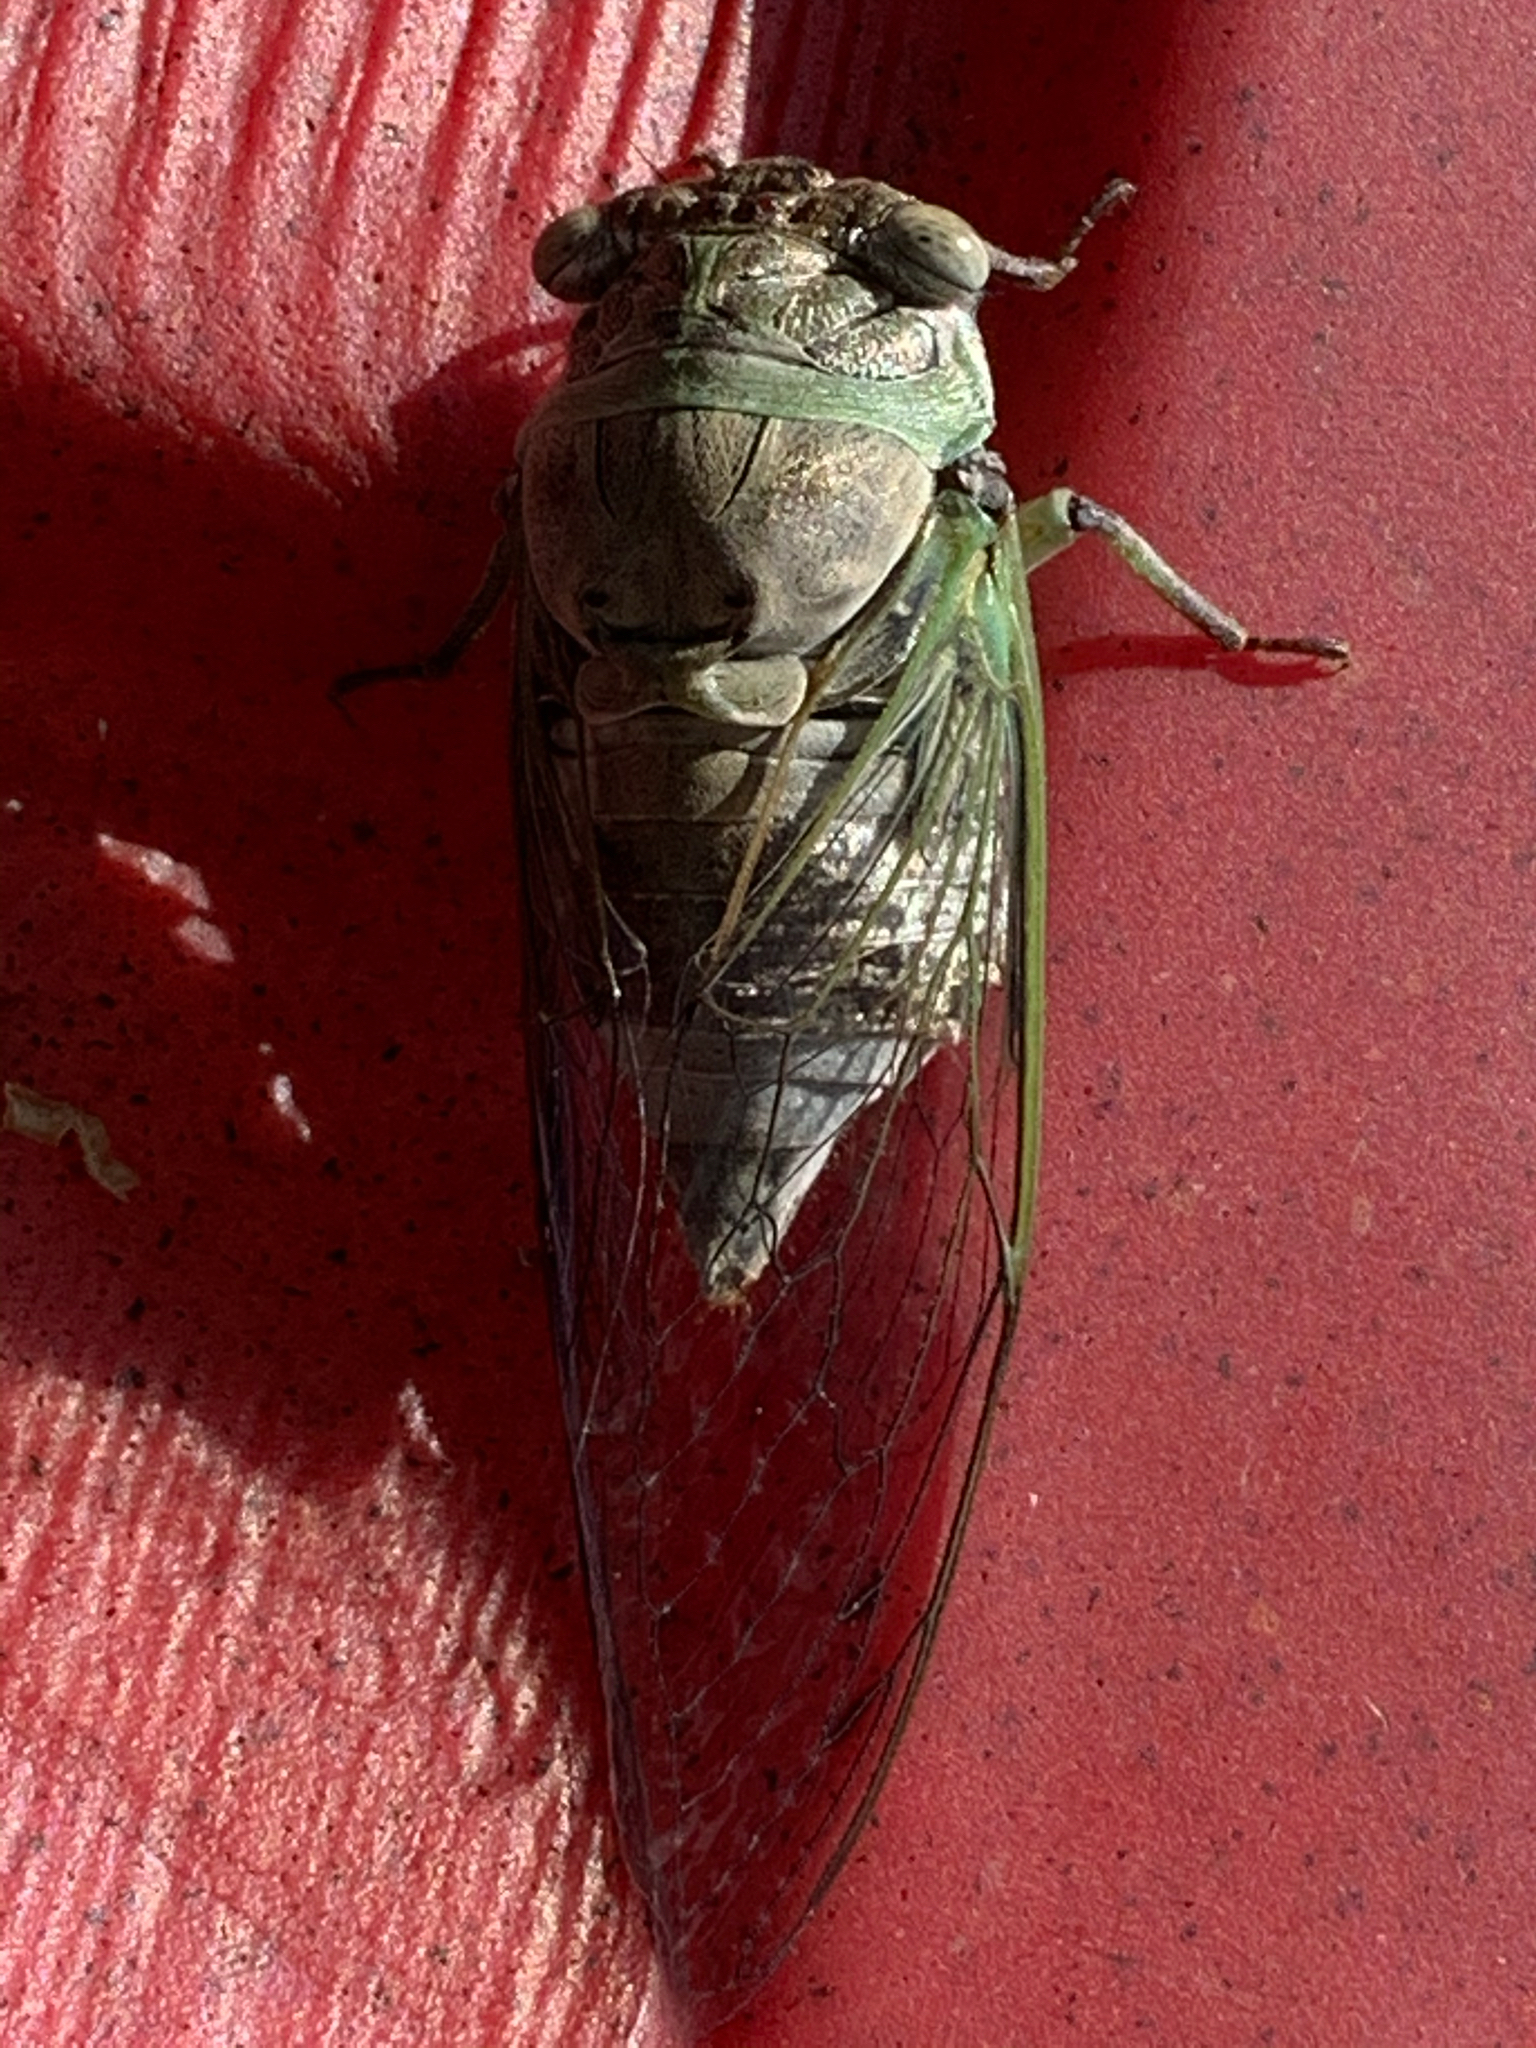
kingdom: Animalia
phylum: Arthropoda
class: Insecta
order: Hemiptera
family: Cicadidae
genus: Diceroprocta
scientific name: Diceroprocta grossa
